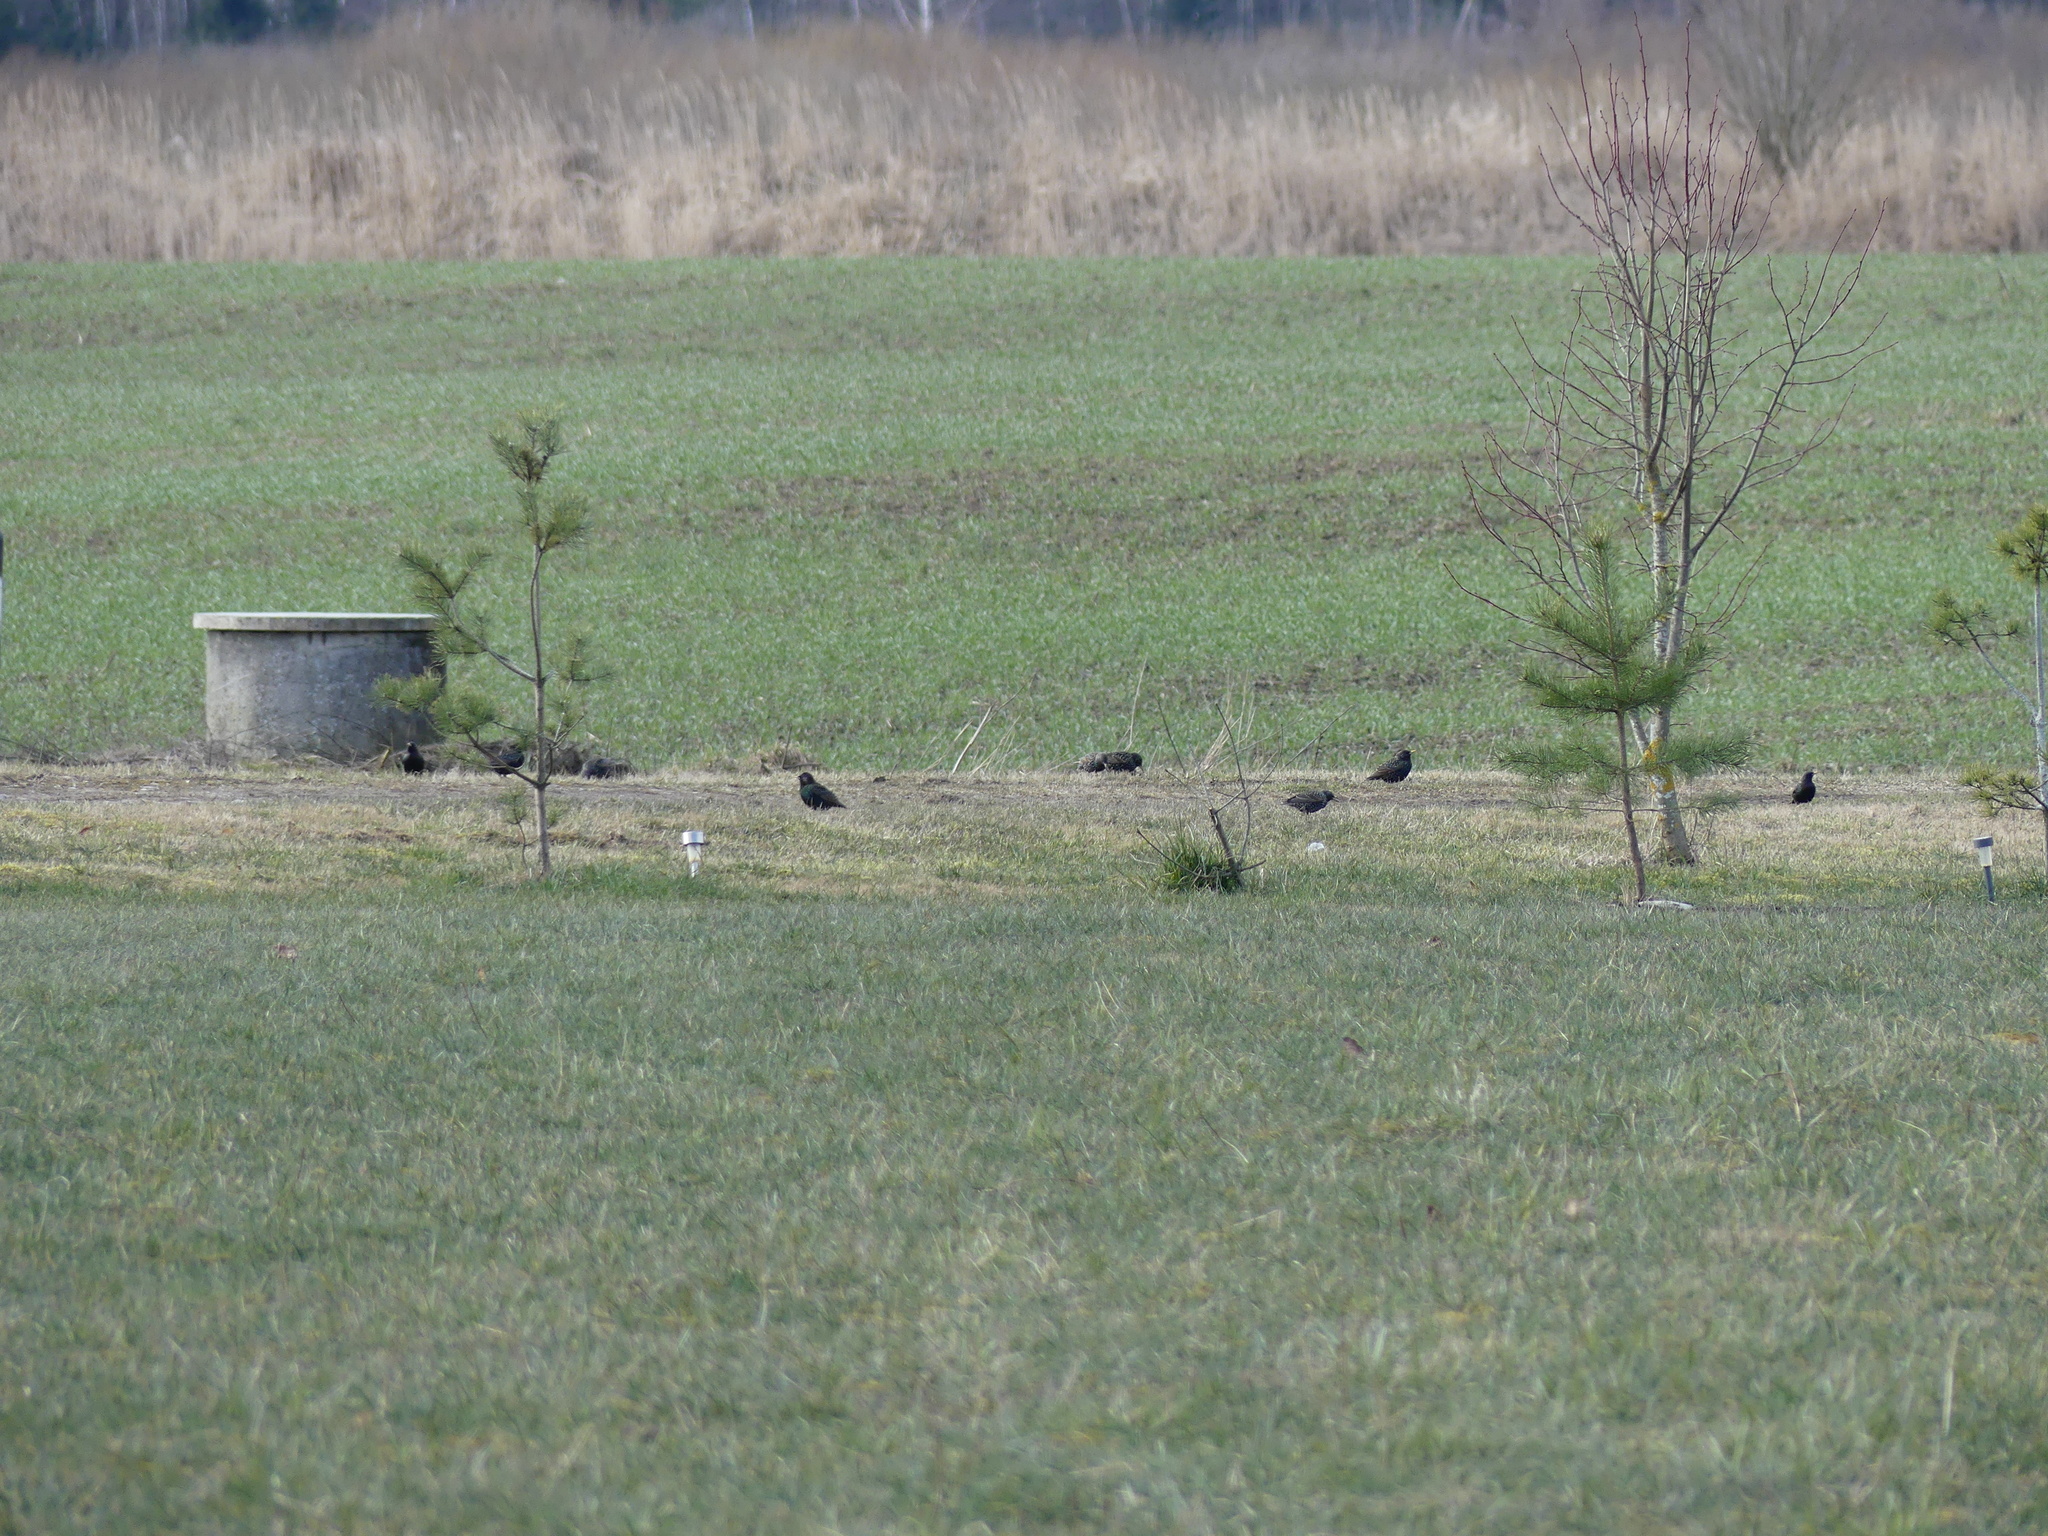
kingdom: Animalia
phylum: Chordata
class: Aves
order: Passeriformes
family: Sturnidae
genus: Sturnus
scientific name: Sturnus vulgaris
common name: Common starling
